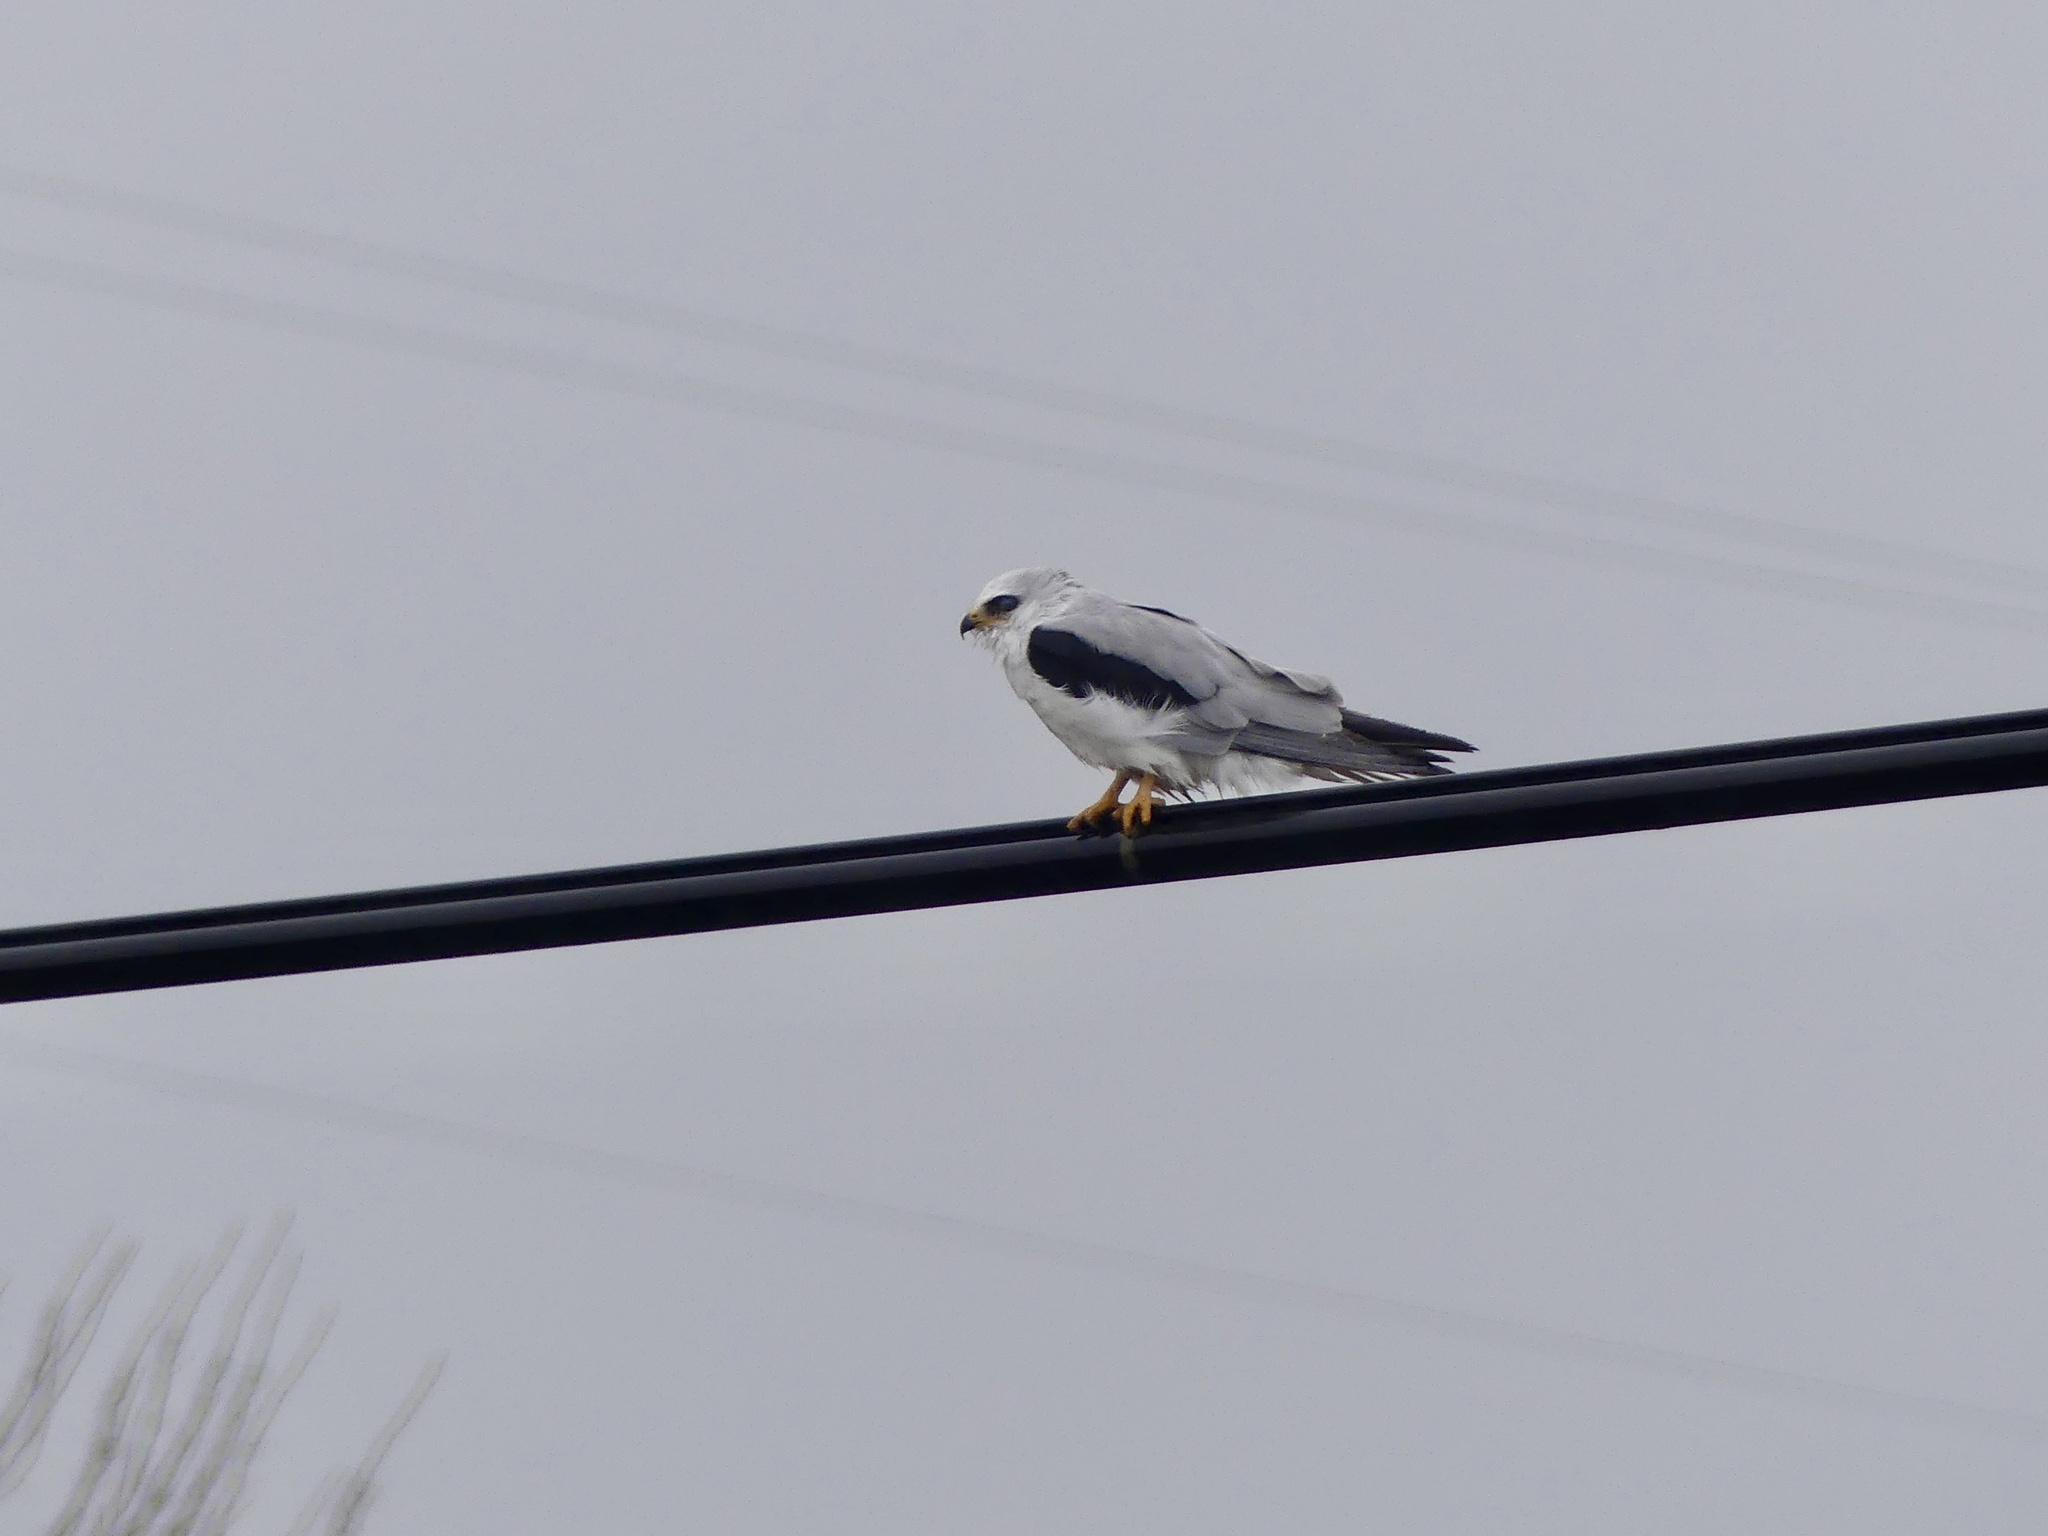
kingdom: Animalia
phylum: Chordata
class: Aves
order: Accipitriformes
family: Accipitridae
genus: Elanus
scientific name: Elanus leucurus
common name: White-tailed kite
